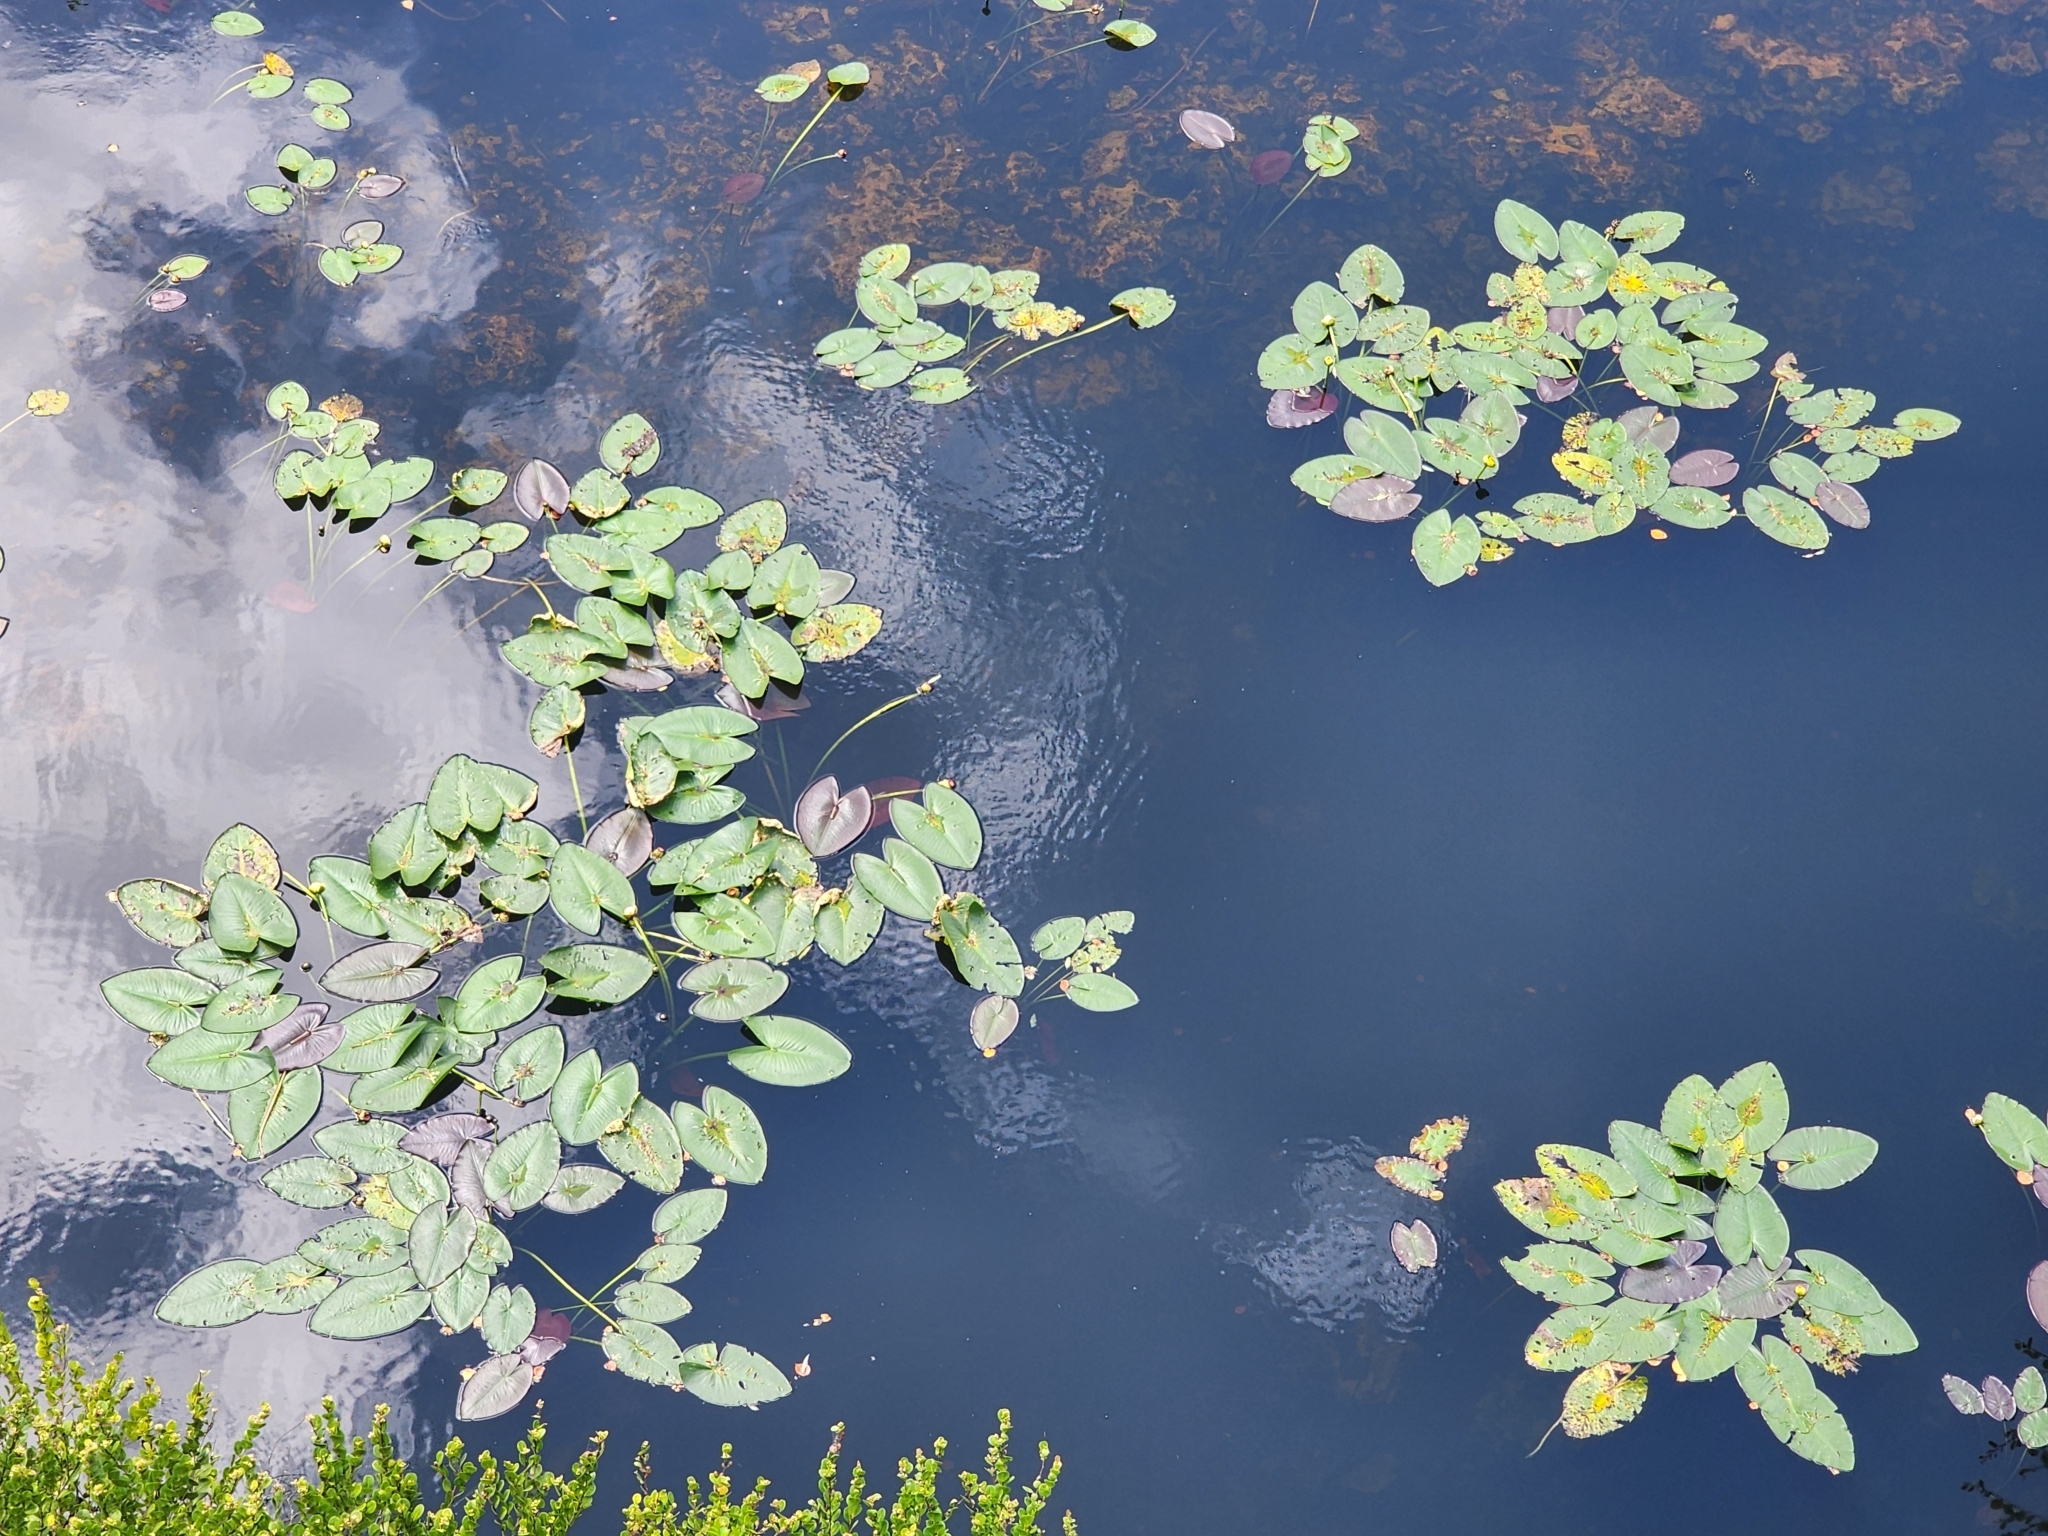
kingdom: Plantae
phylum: Tracheophyta
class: Magnoliopsida
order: Nymphaeales
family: Nymphaeaceae
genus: Nuphar
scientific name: Nuphar advena
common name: Spatter-dock
